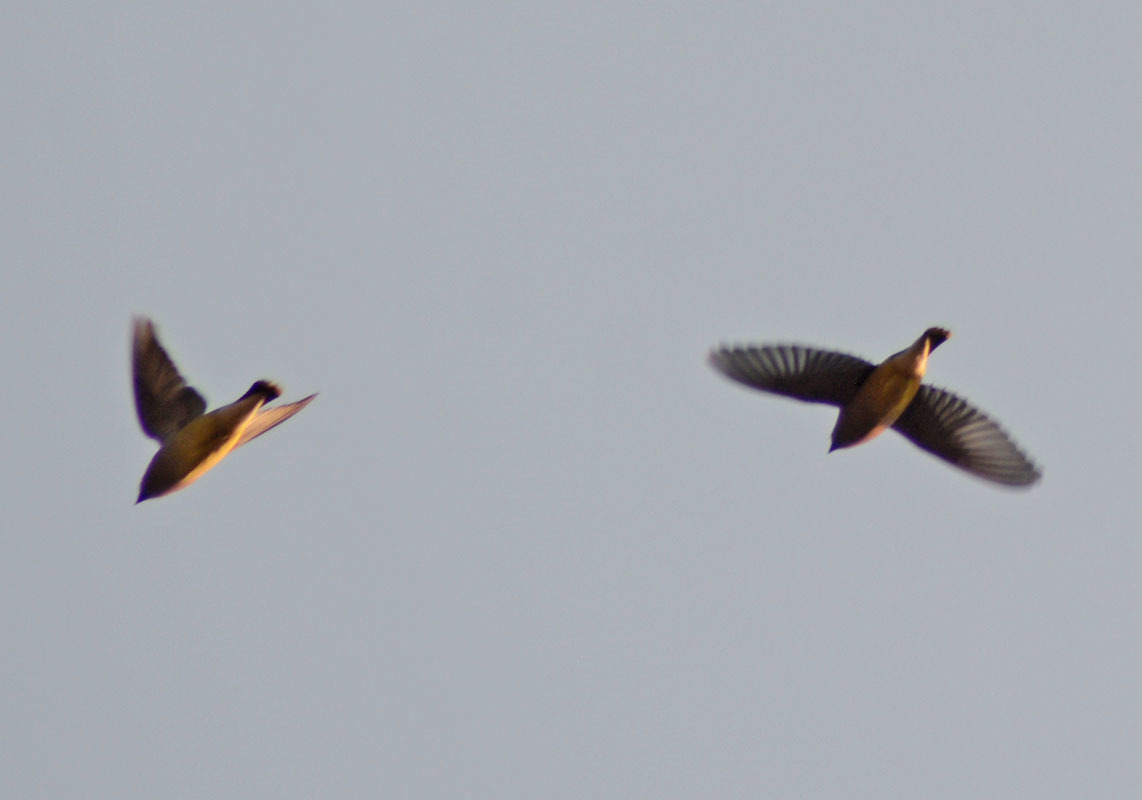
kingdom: Animalia
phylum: Chordata
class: Aves
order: Passeriformes
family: Bombycillidae
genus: Bombycilla
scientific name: Bombycilla cedrorum
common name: Cedar waxwing
